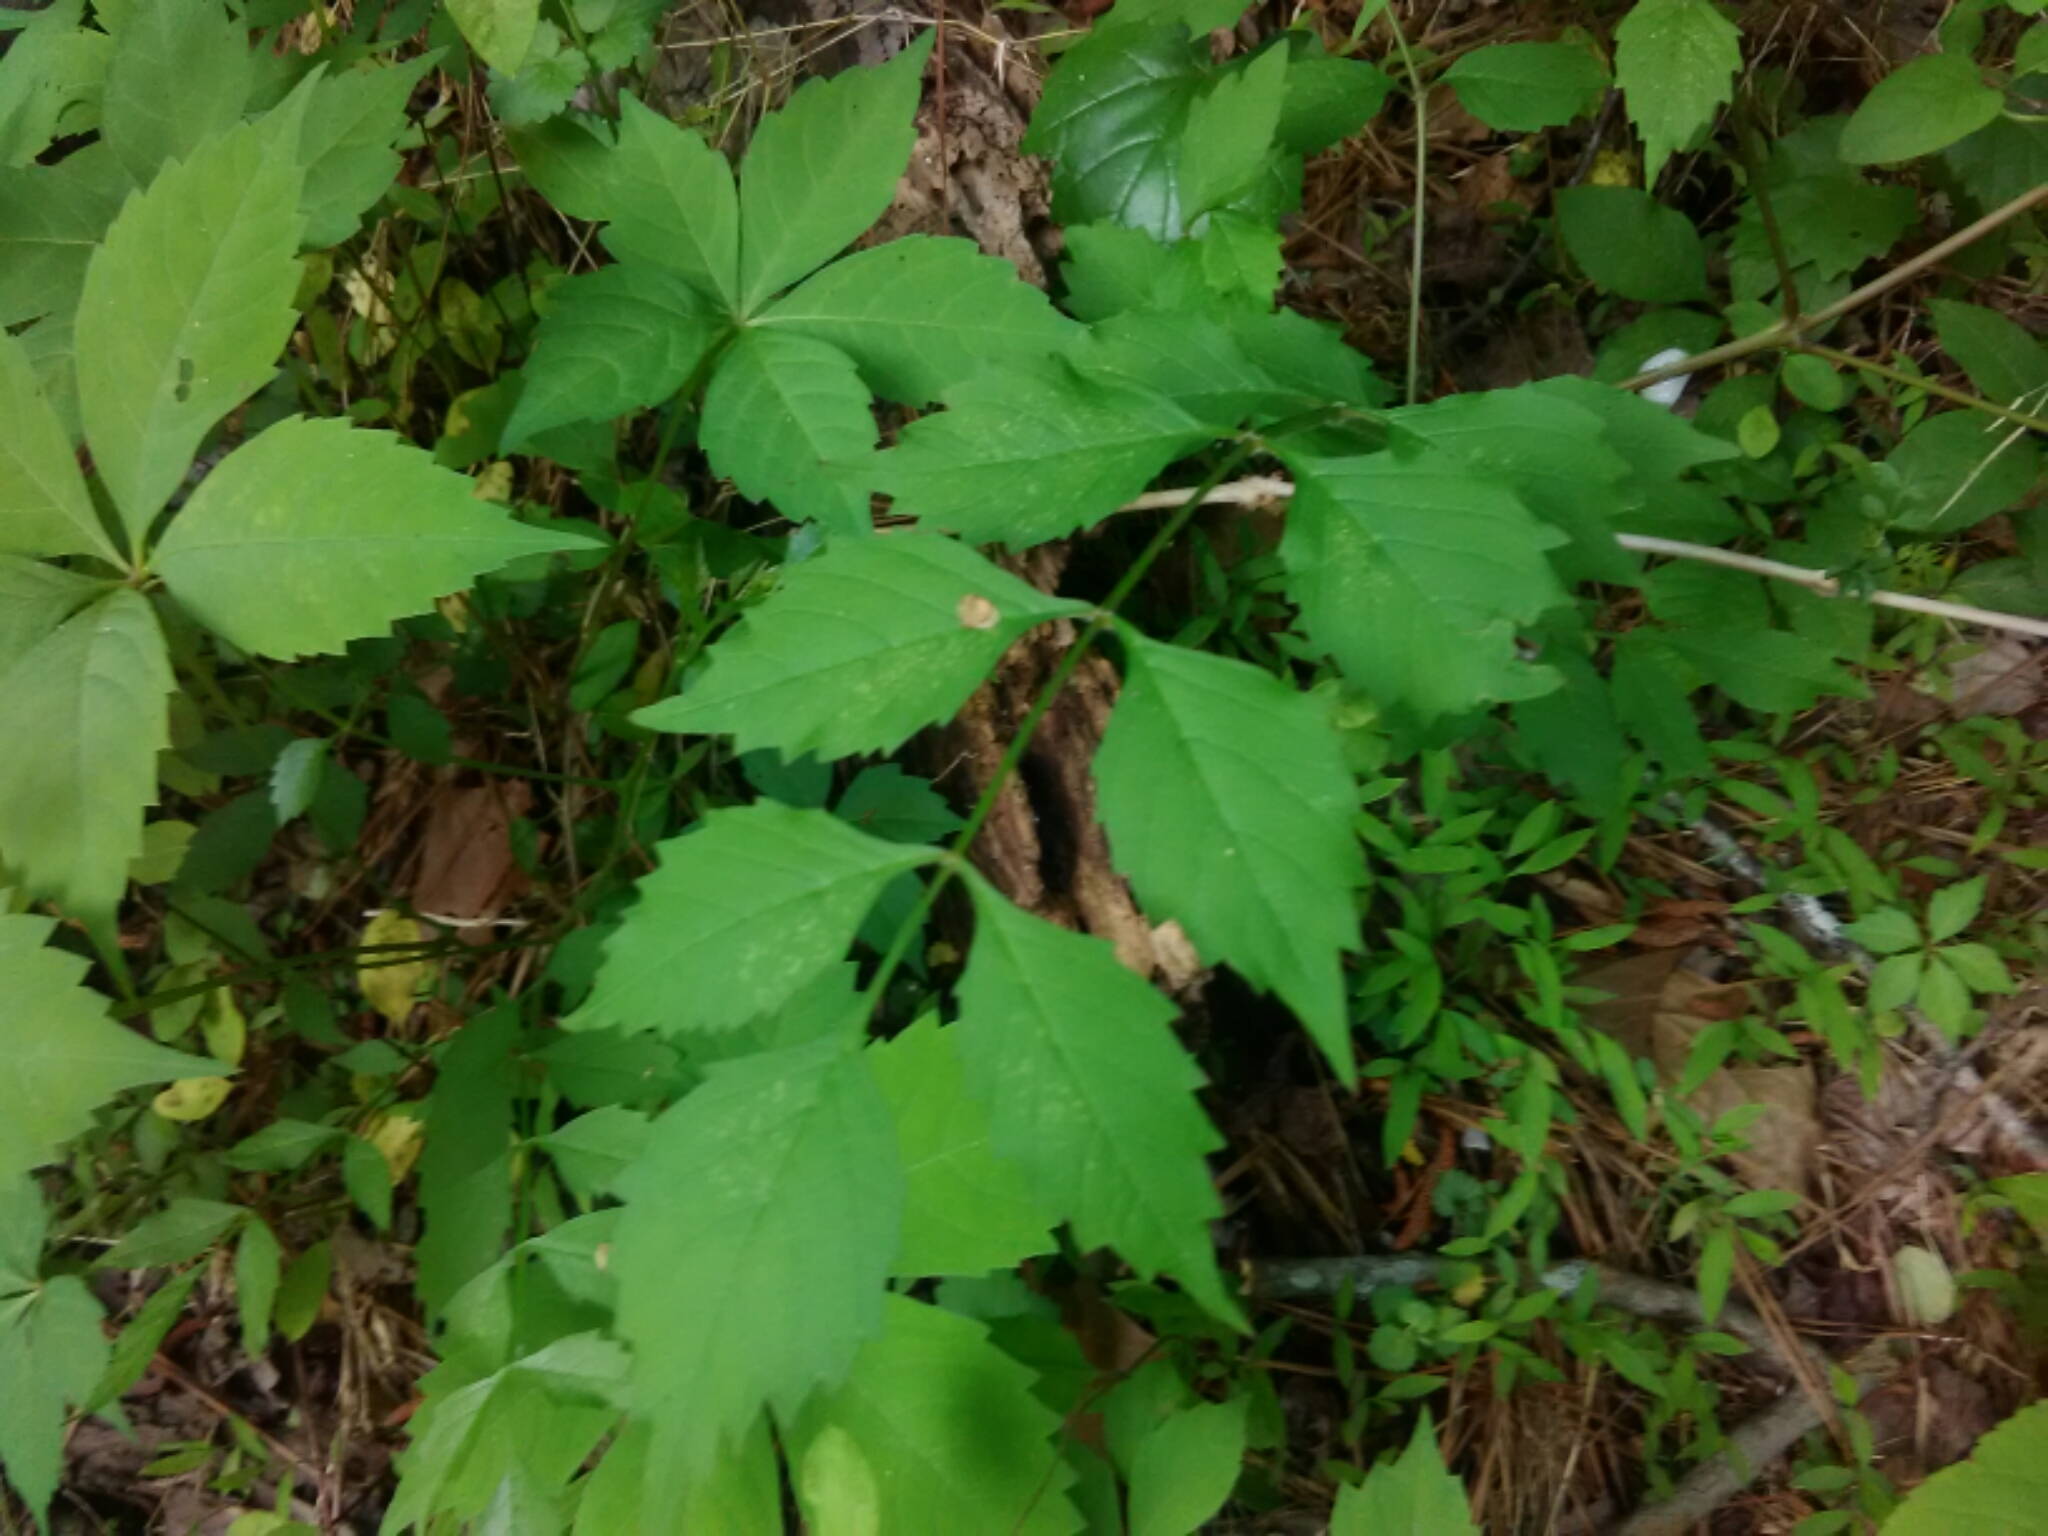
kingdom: Plantae
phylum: Tracheophyta
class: Magnoliopsida
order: Lamiales
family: Bignoniaceae
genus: Campsis
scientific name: Campsis radicans
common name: Trumpet-creeper
